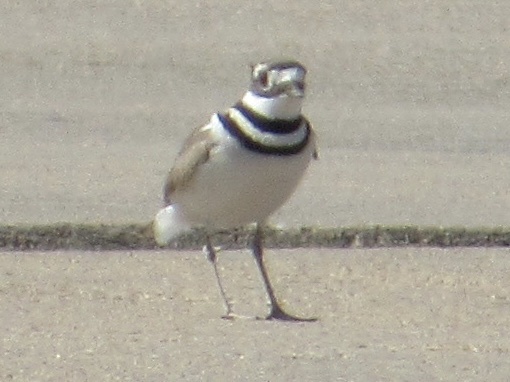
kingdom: Animalia
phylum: Chordata
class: Aves
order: Charadriiformes
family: Charadriidae
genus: Charadrius
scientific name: Charadrius vociferus
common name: Killdeer
